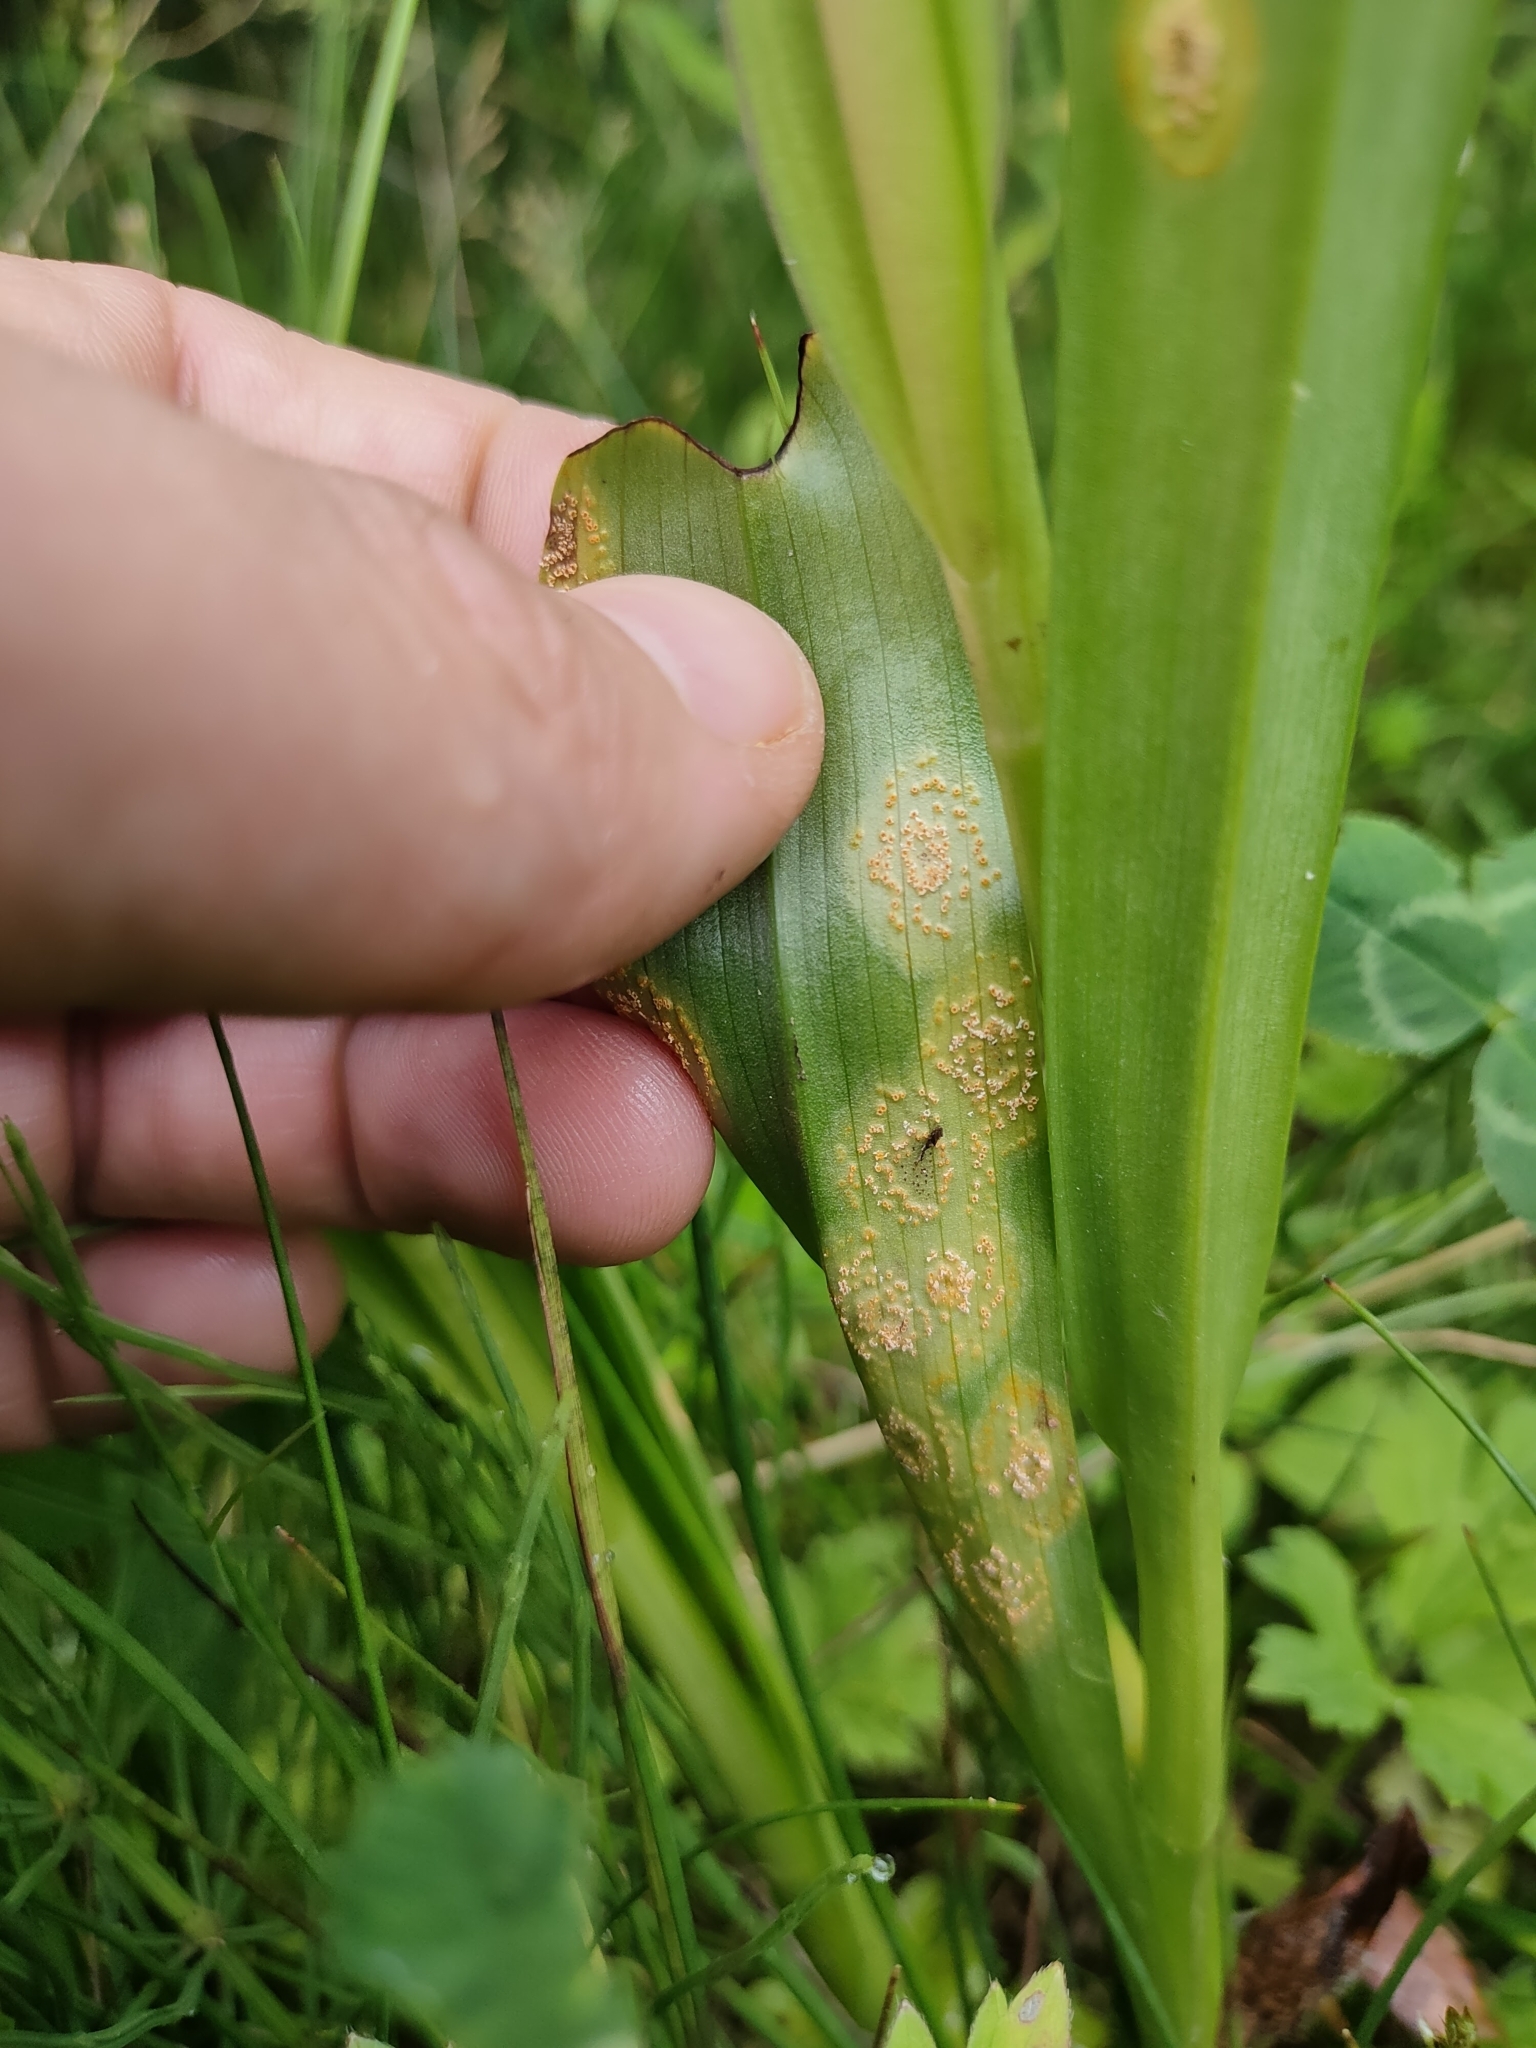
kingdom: Fungi
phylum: Basidiomycota
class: Pucciniomycetes
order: Pucciniales
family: Pucciniaceae
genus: Puccinia
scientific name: Puccinia sessilis
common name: Arum rust
